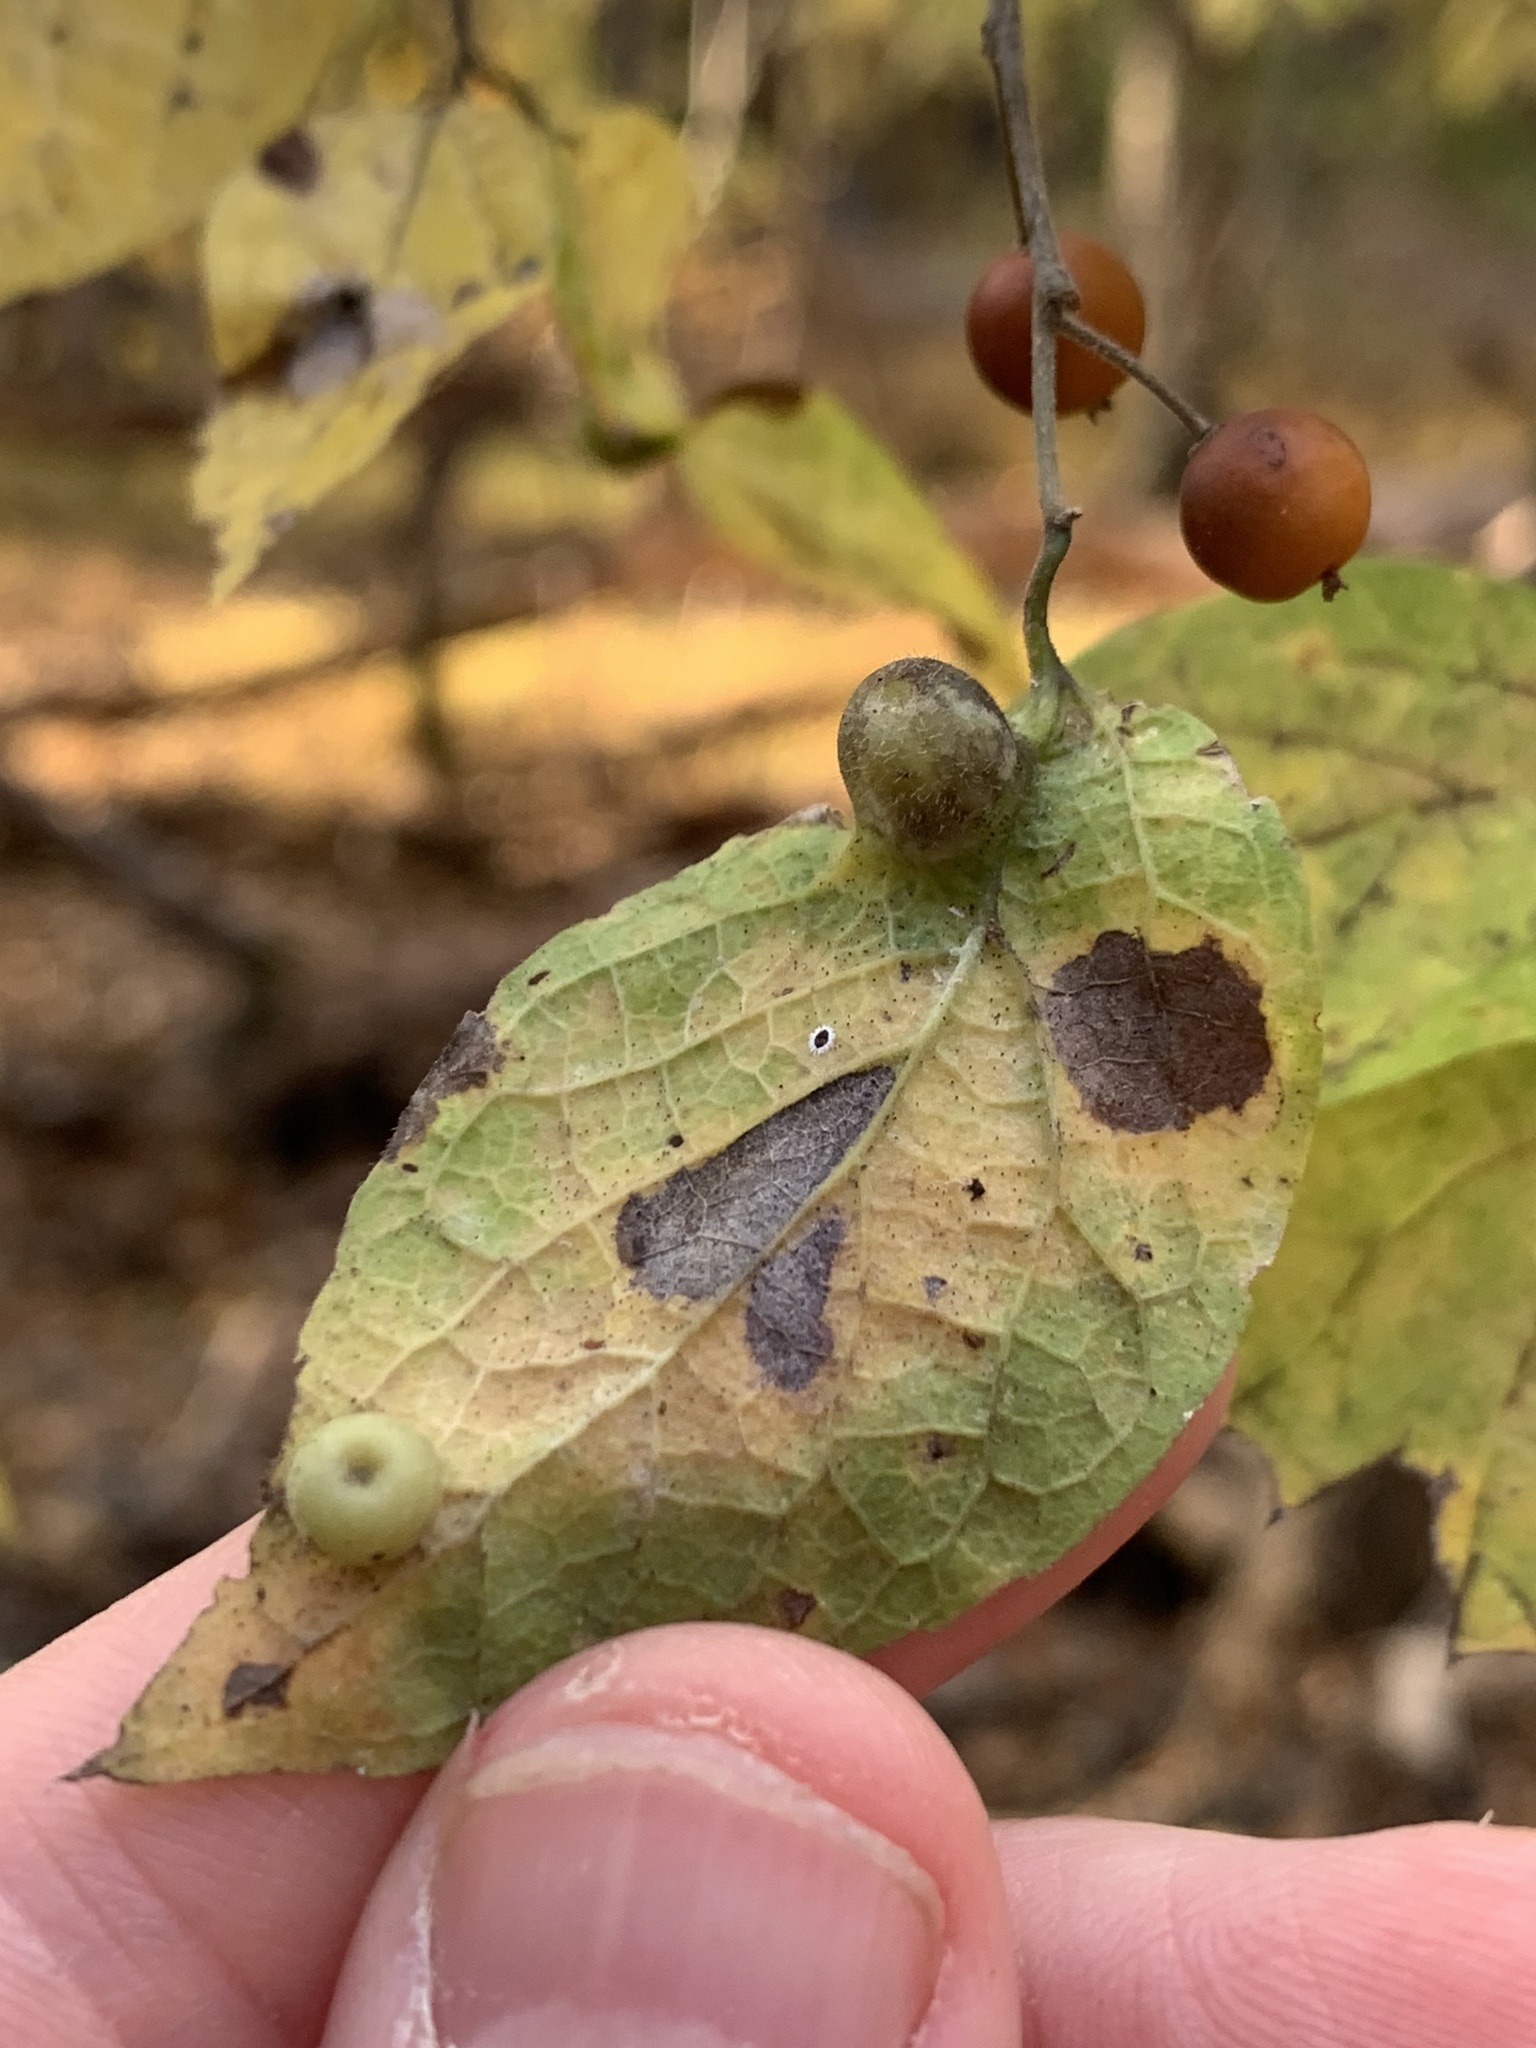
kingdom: Plantae
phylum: Tracheophyta
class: Magnoliopsida
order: Rosales
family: Cannabaceae
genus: Celtis
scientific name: Celtis occidentalis
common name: Common hackberry
